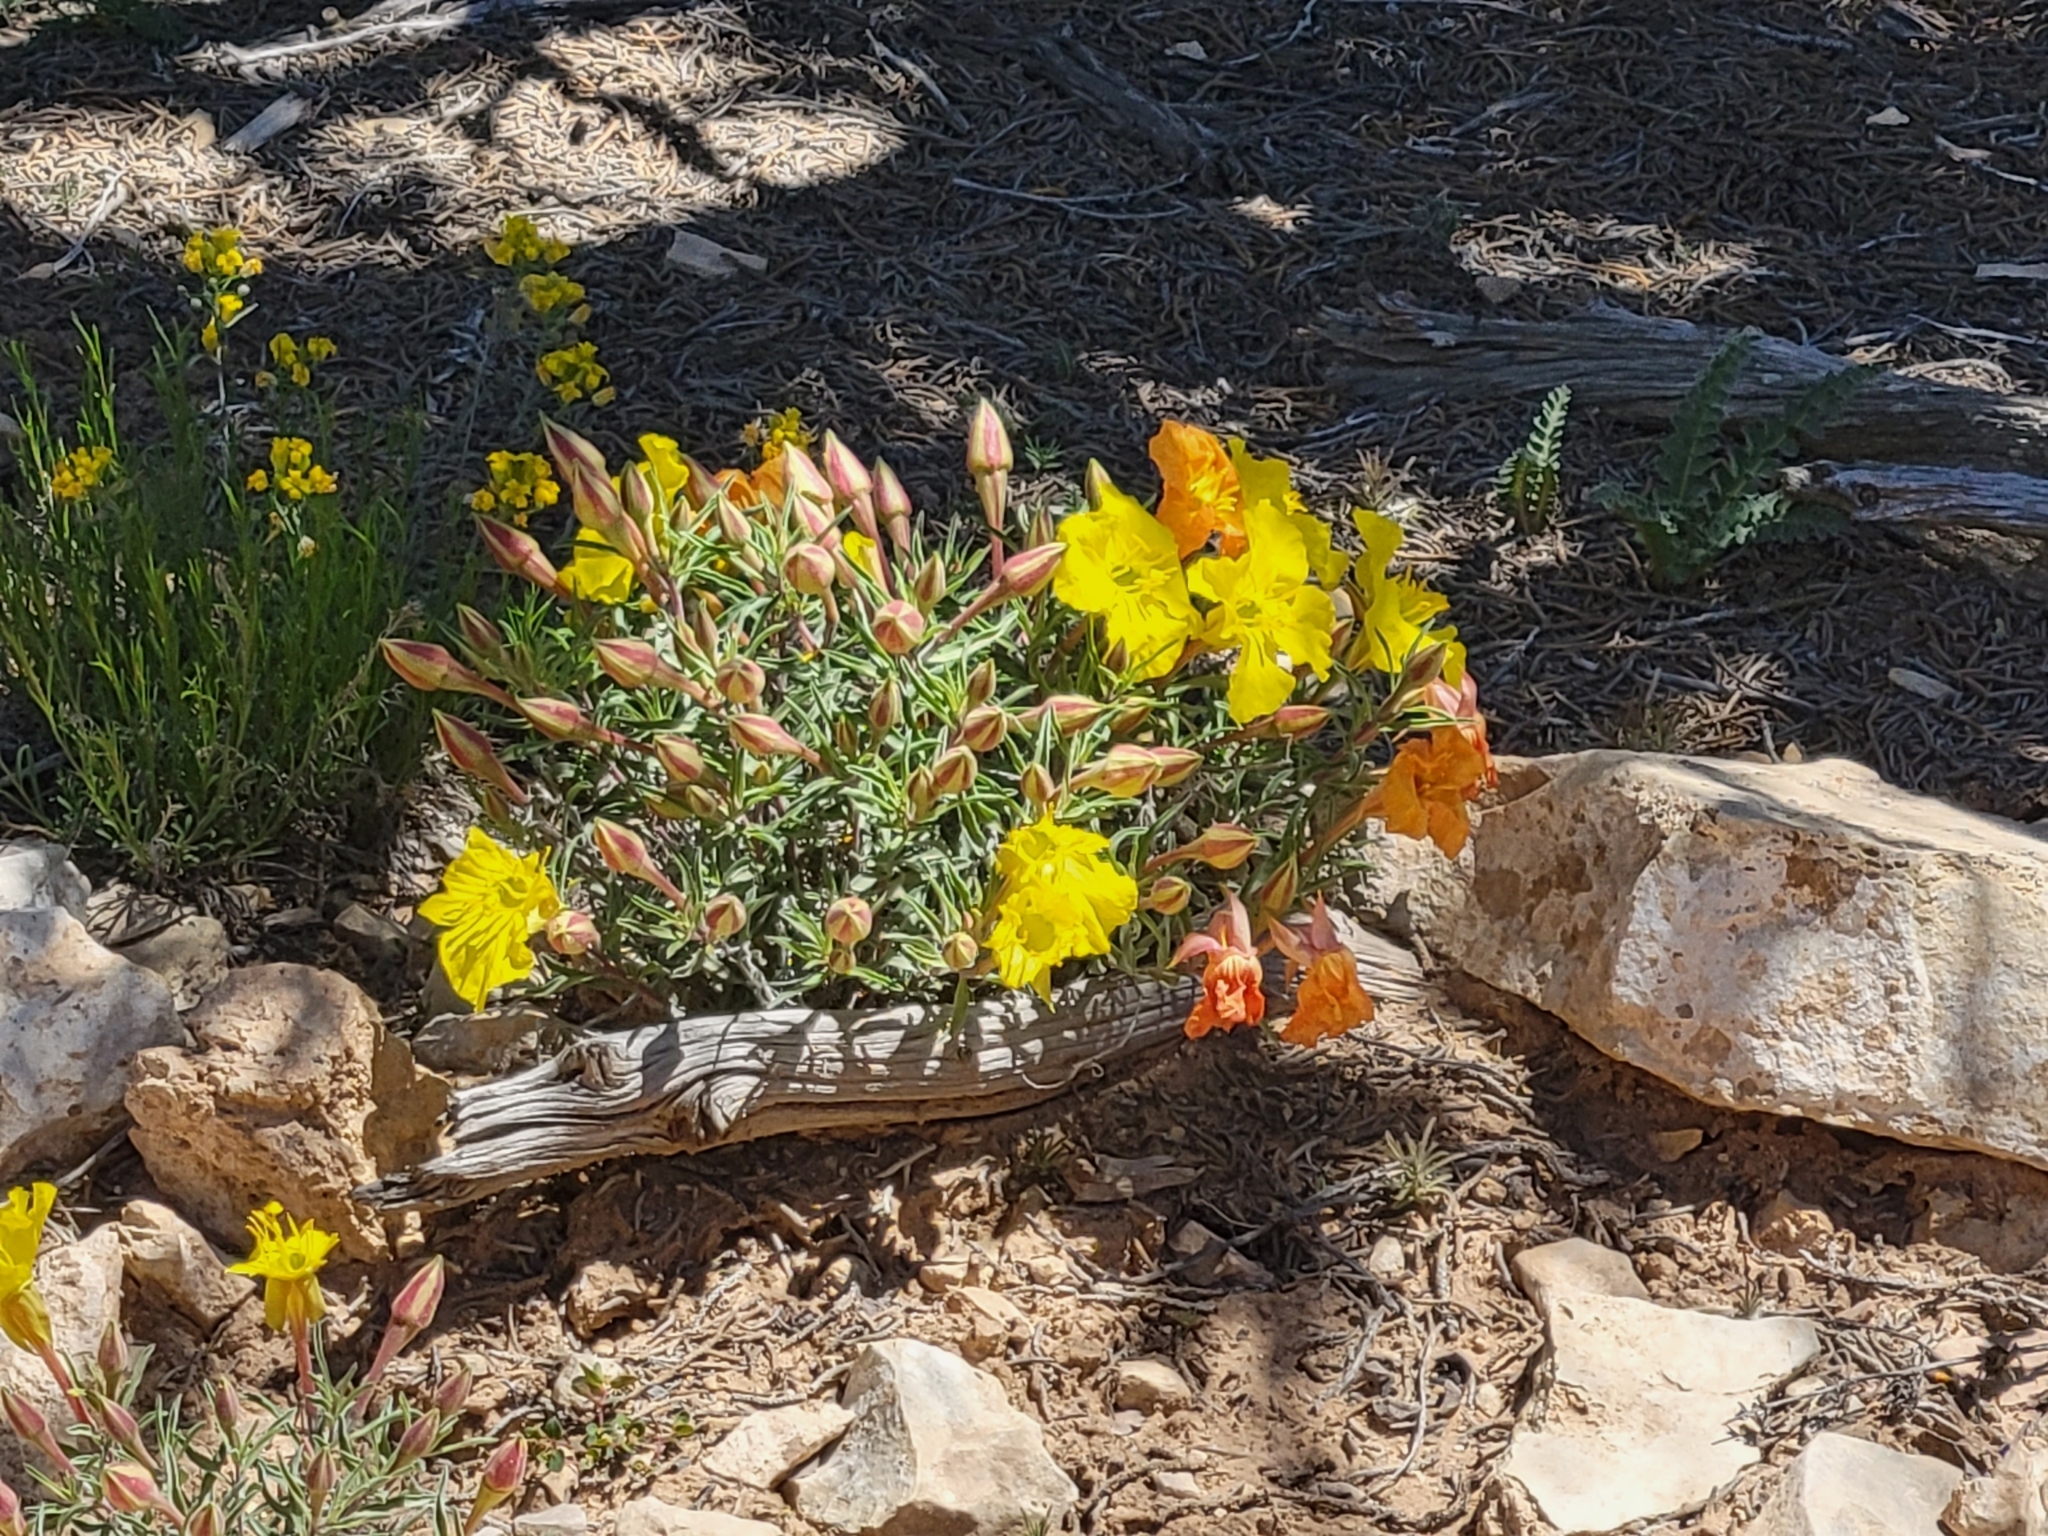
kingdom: Plantae
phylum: Tracheophyta
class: Magnoliopsida
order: Myrtales
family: Onagraceae
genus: Oenothera
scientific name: Oenothera lavandulifolia
